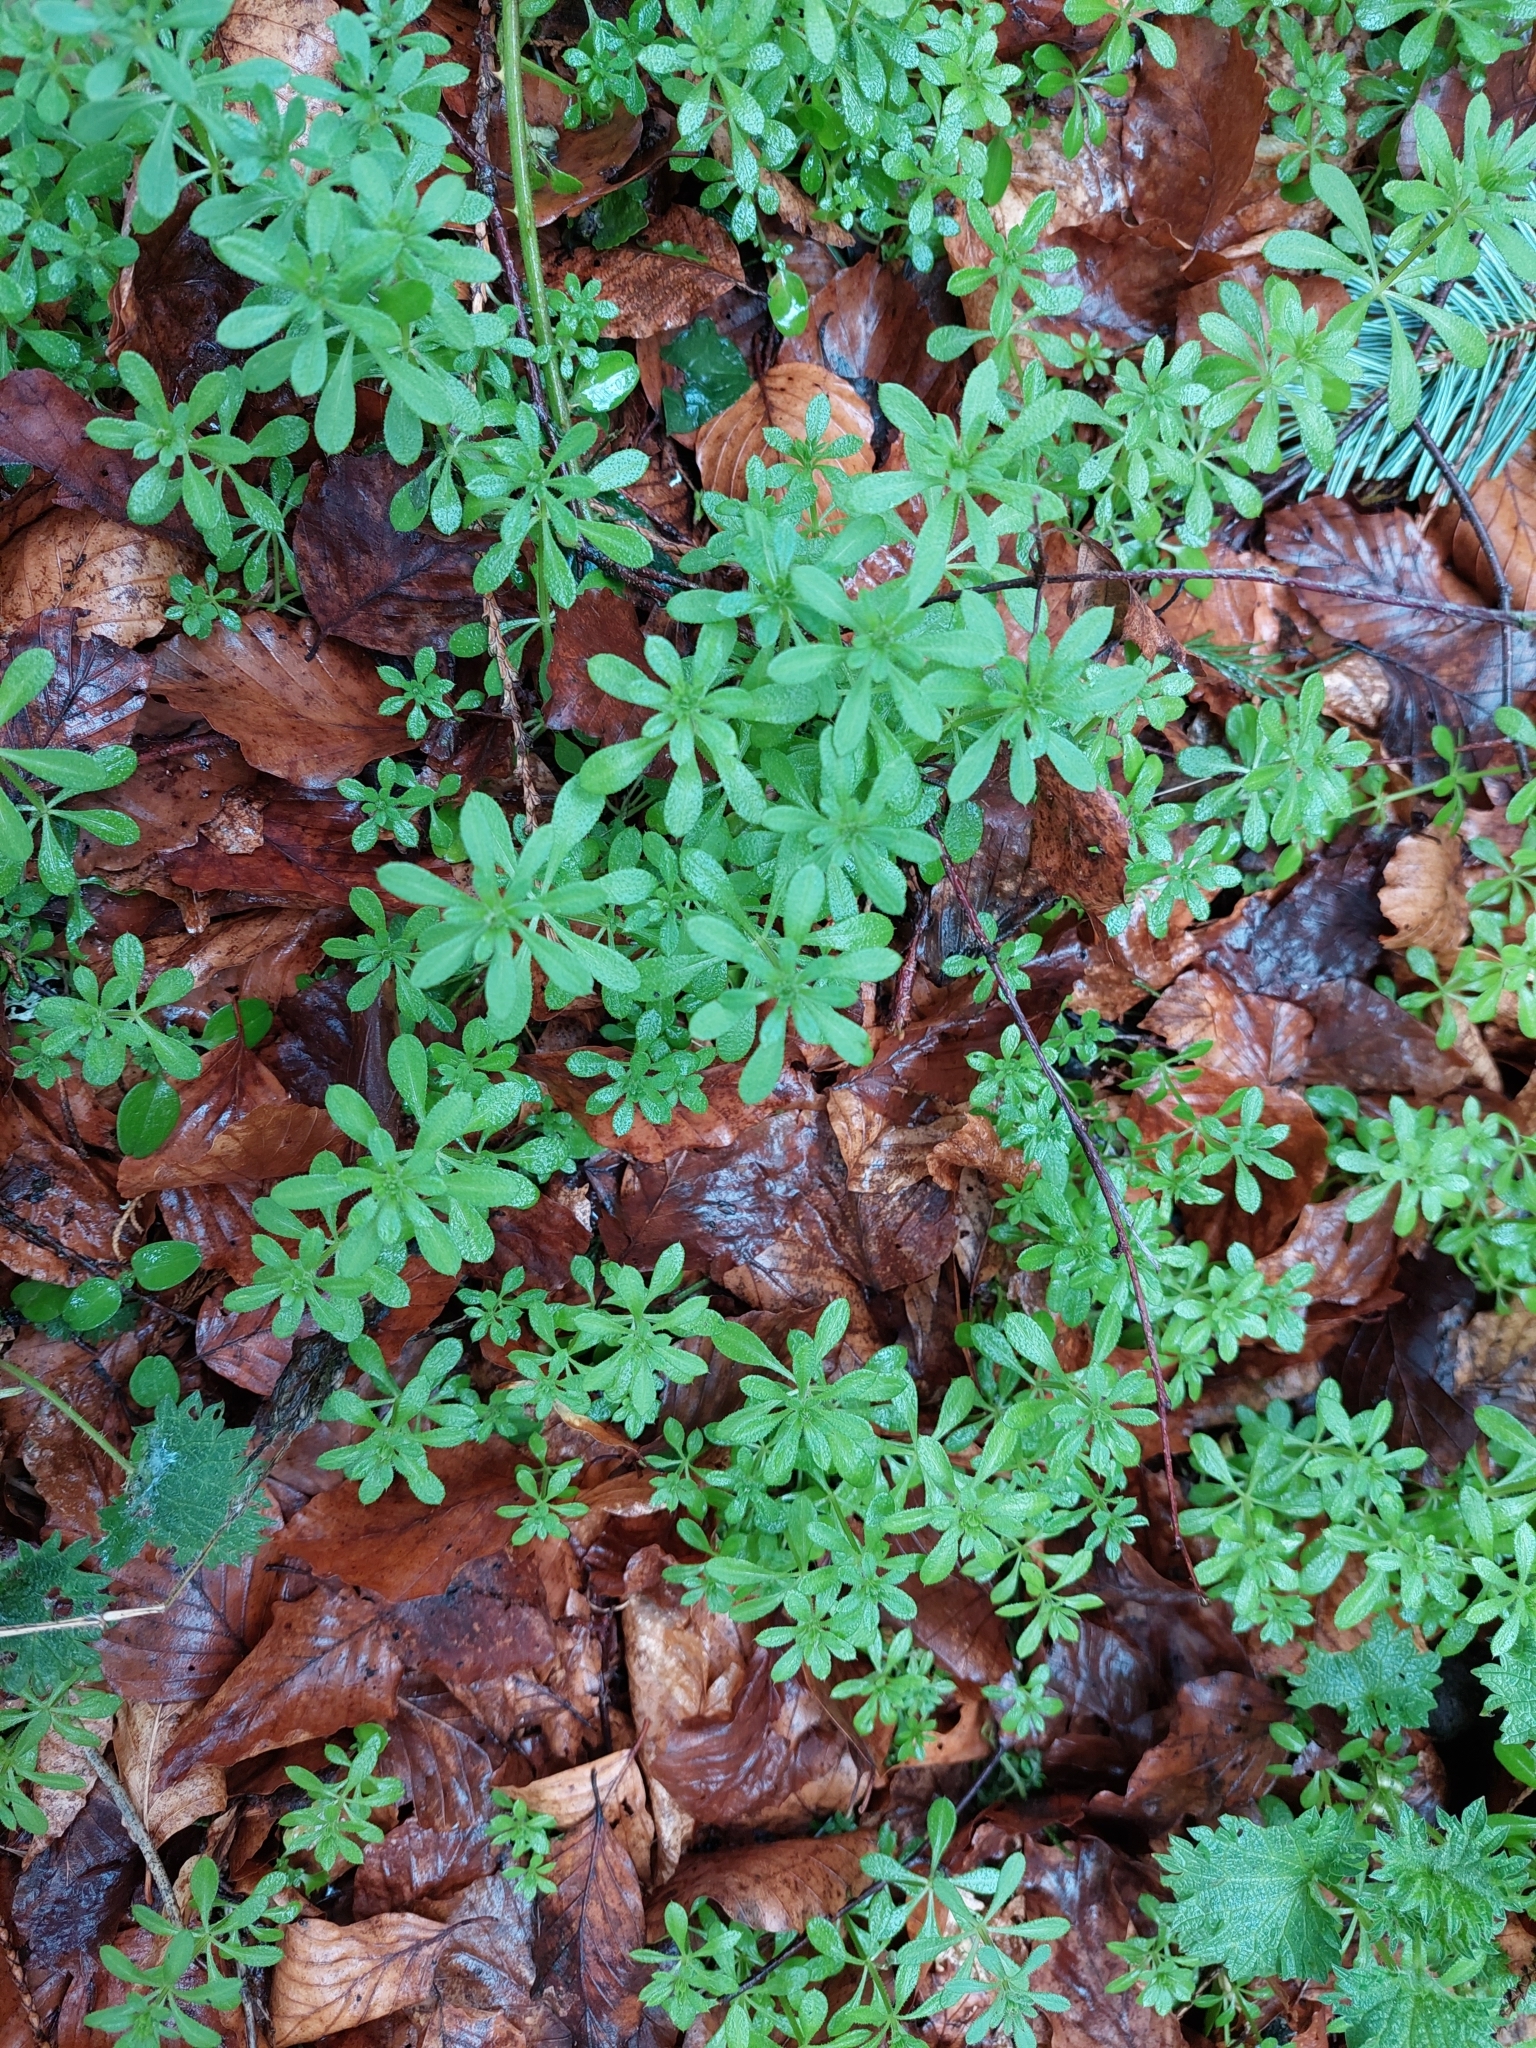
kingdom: Plantae
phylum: Tracheophyta
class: Magnoliopsida
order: Gentianales
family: Rubiaceae
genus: Galium
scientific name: Galium aparine
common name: Cleavers
